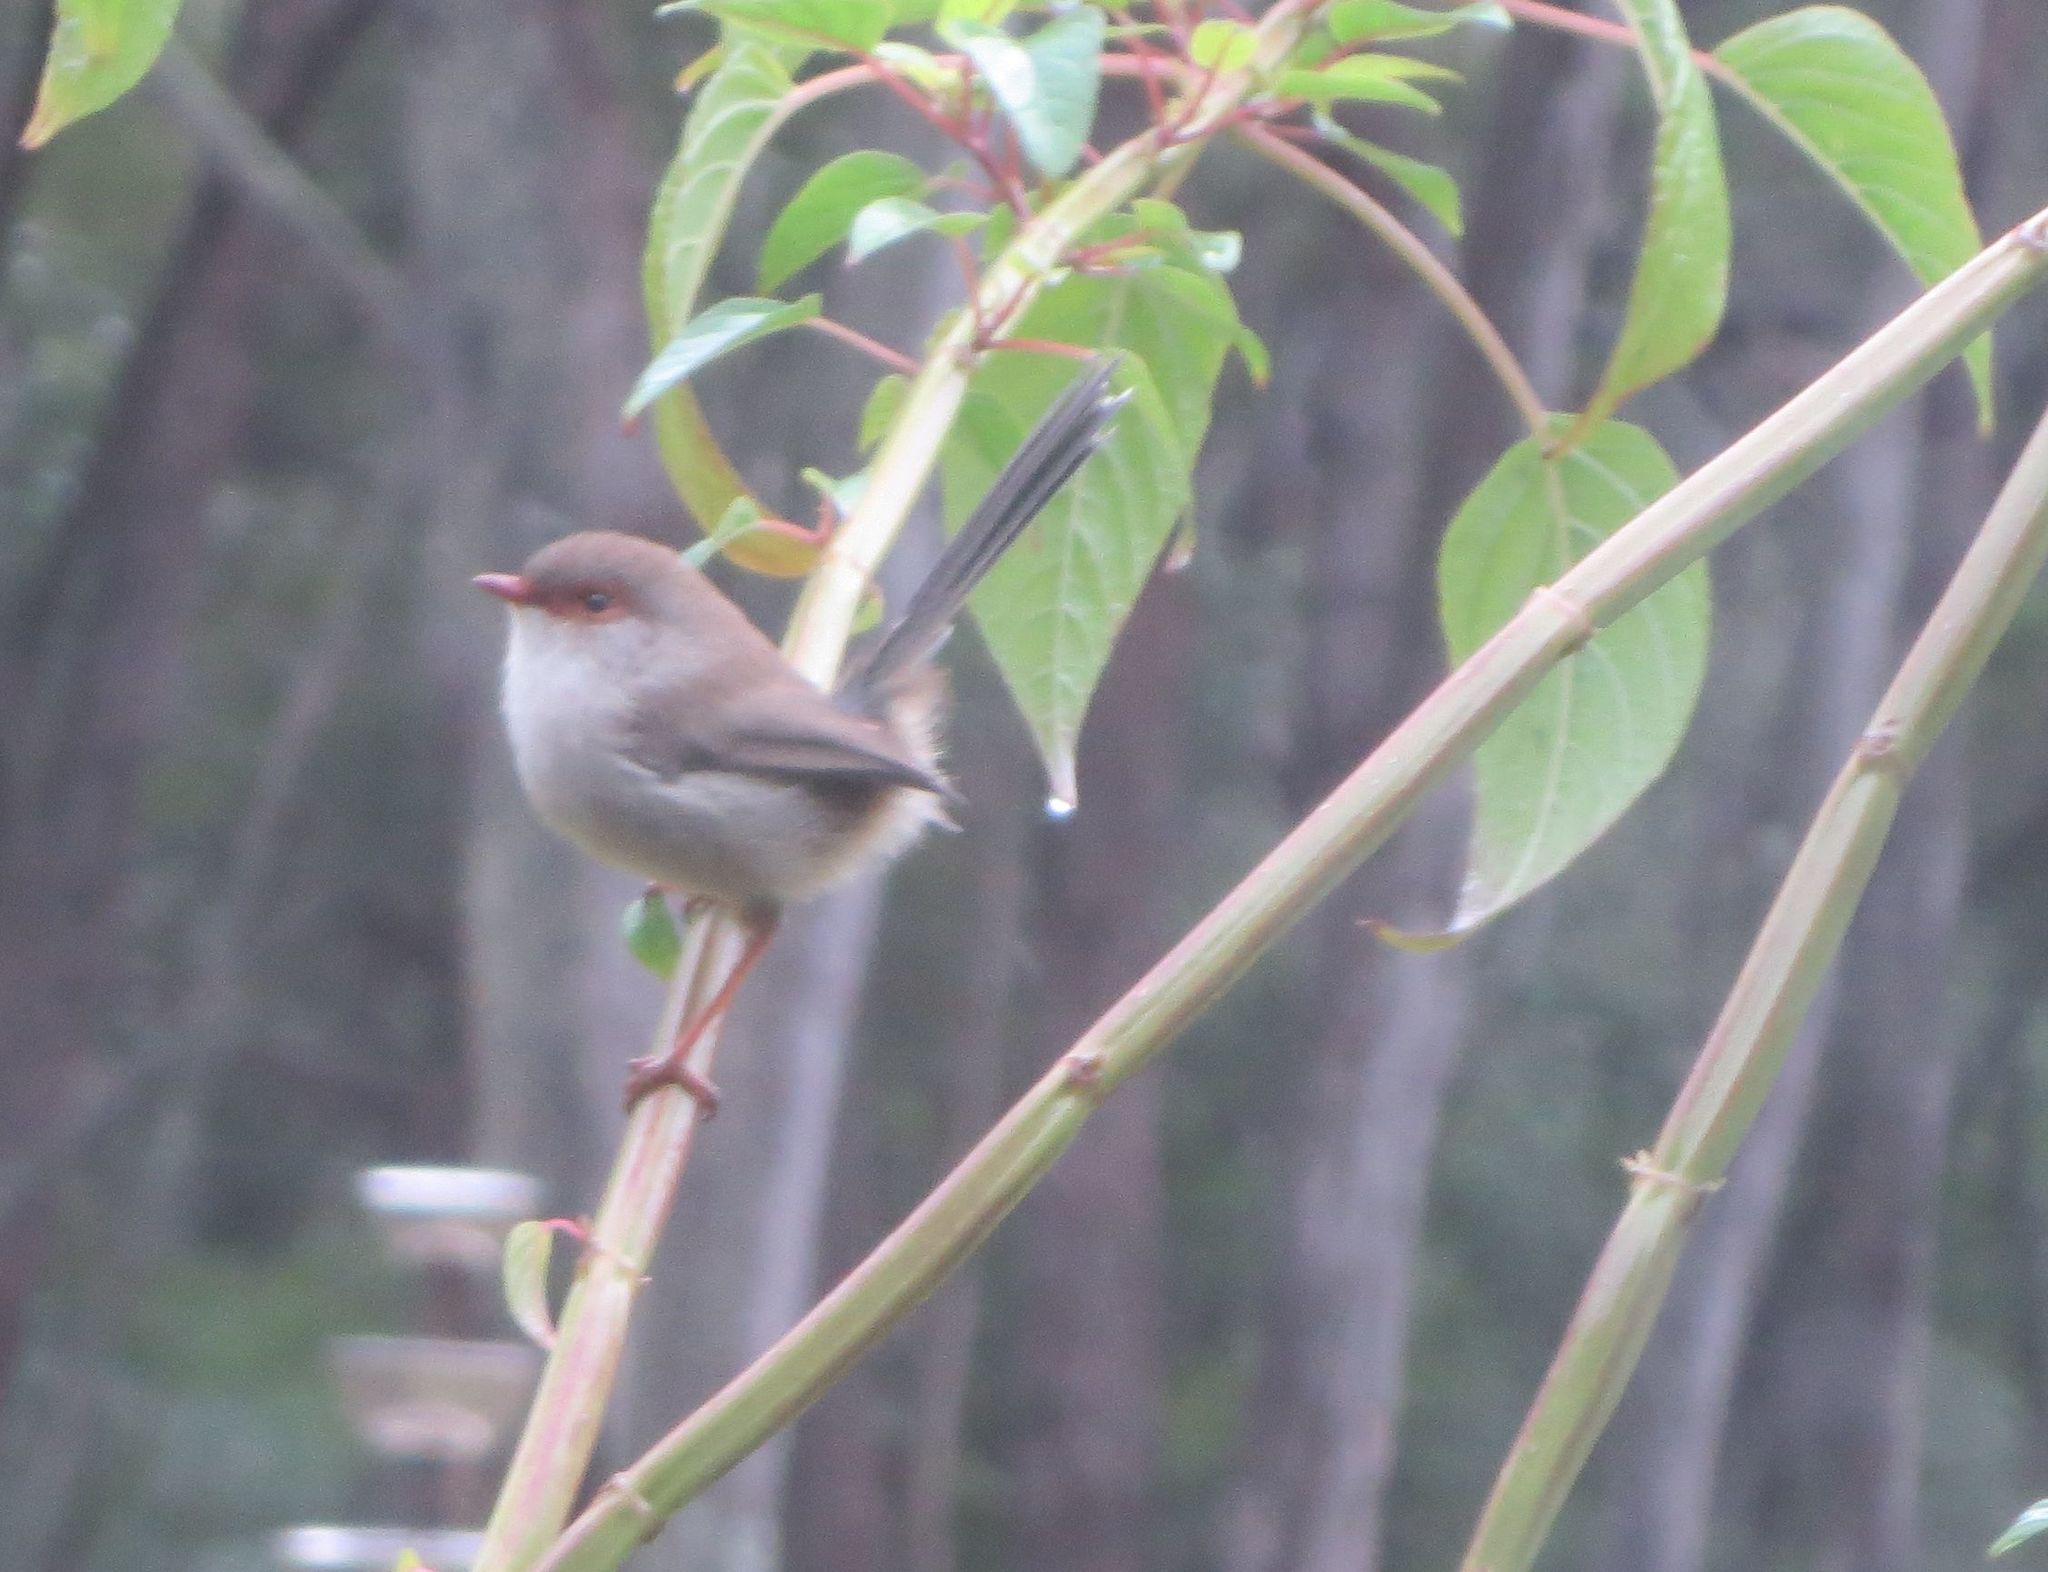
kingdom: Animalia
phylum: Chordata
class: Aves
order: Passeriformes
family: Maluridae
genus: Malurus
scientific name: Malurus cyaneus
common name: Superb fairywren
